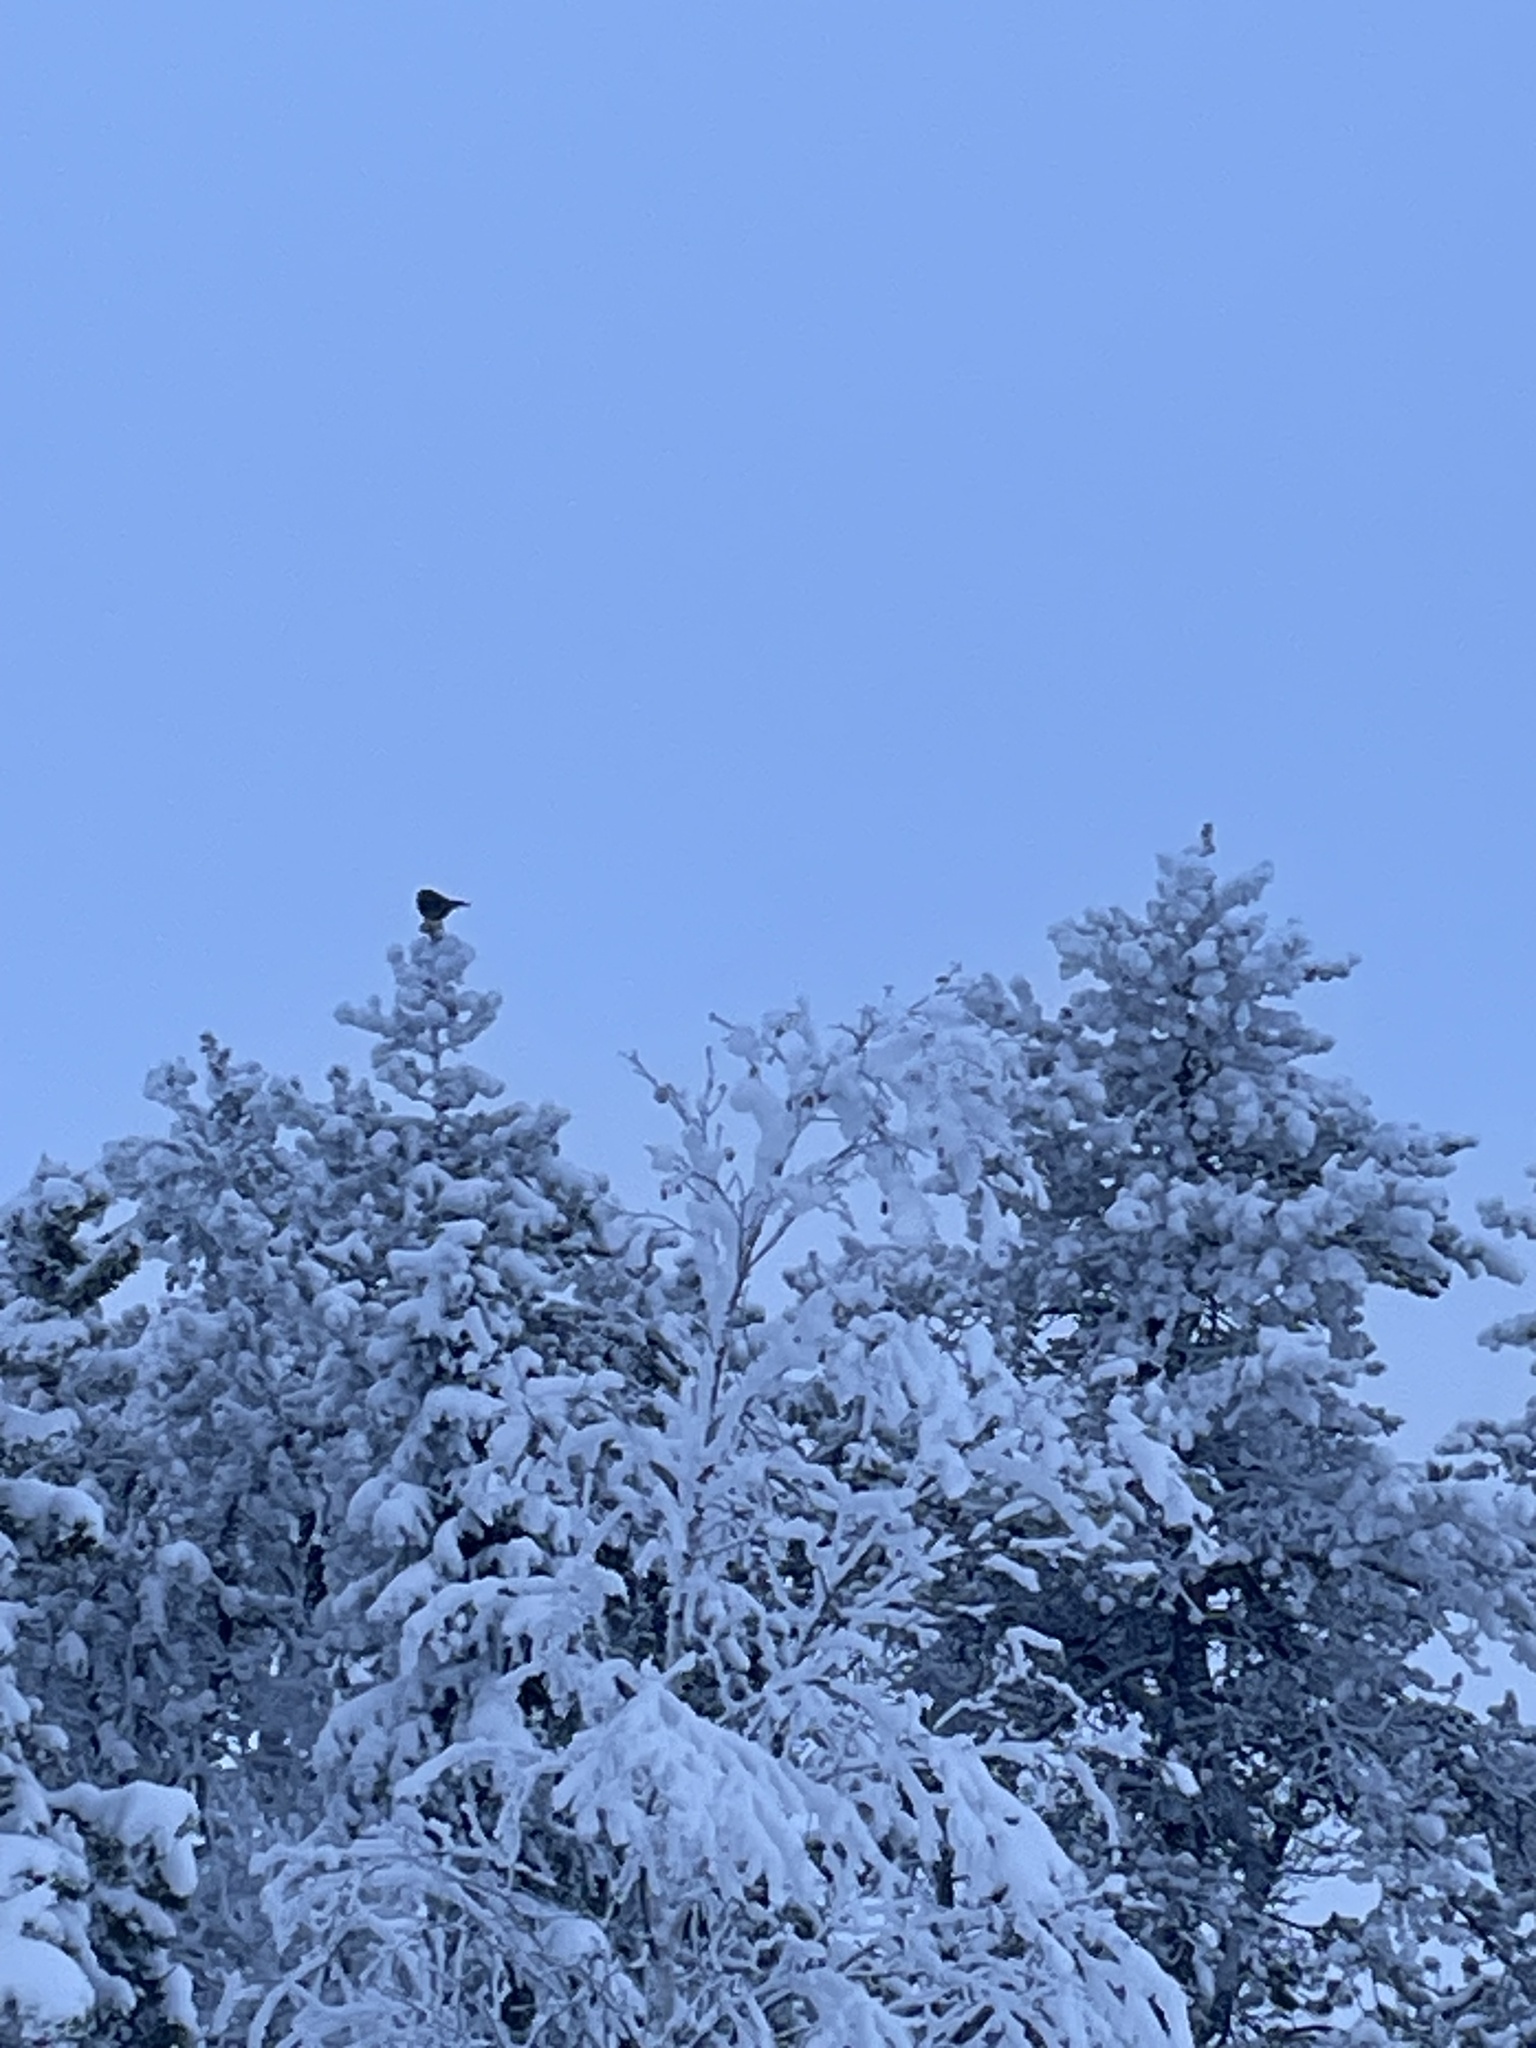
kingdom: Animalia
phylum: Chordata
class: Aves
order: Passeriformes
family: Corvidae
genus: Perisoreus
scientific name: Perisoreus canadensis
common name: Gray jay
